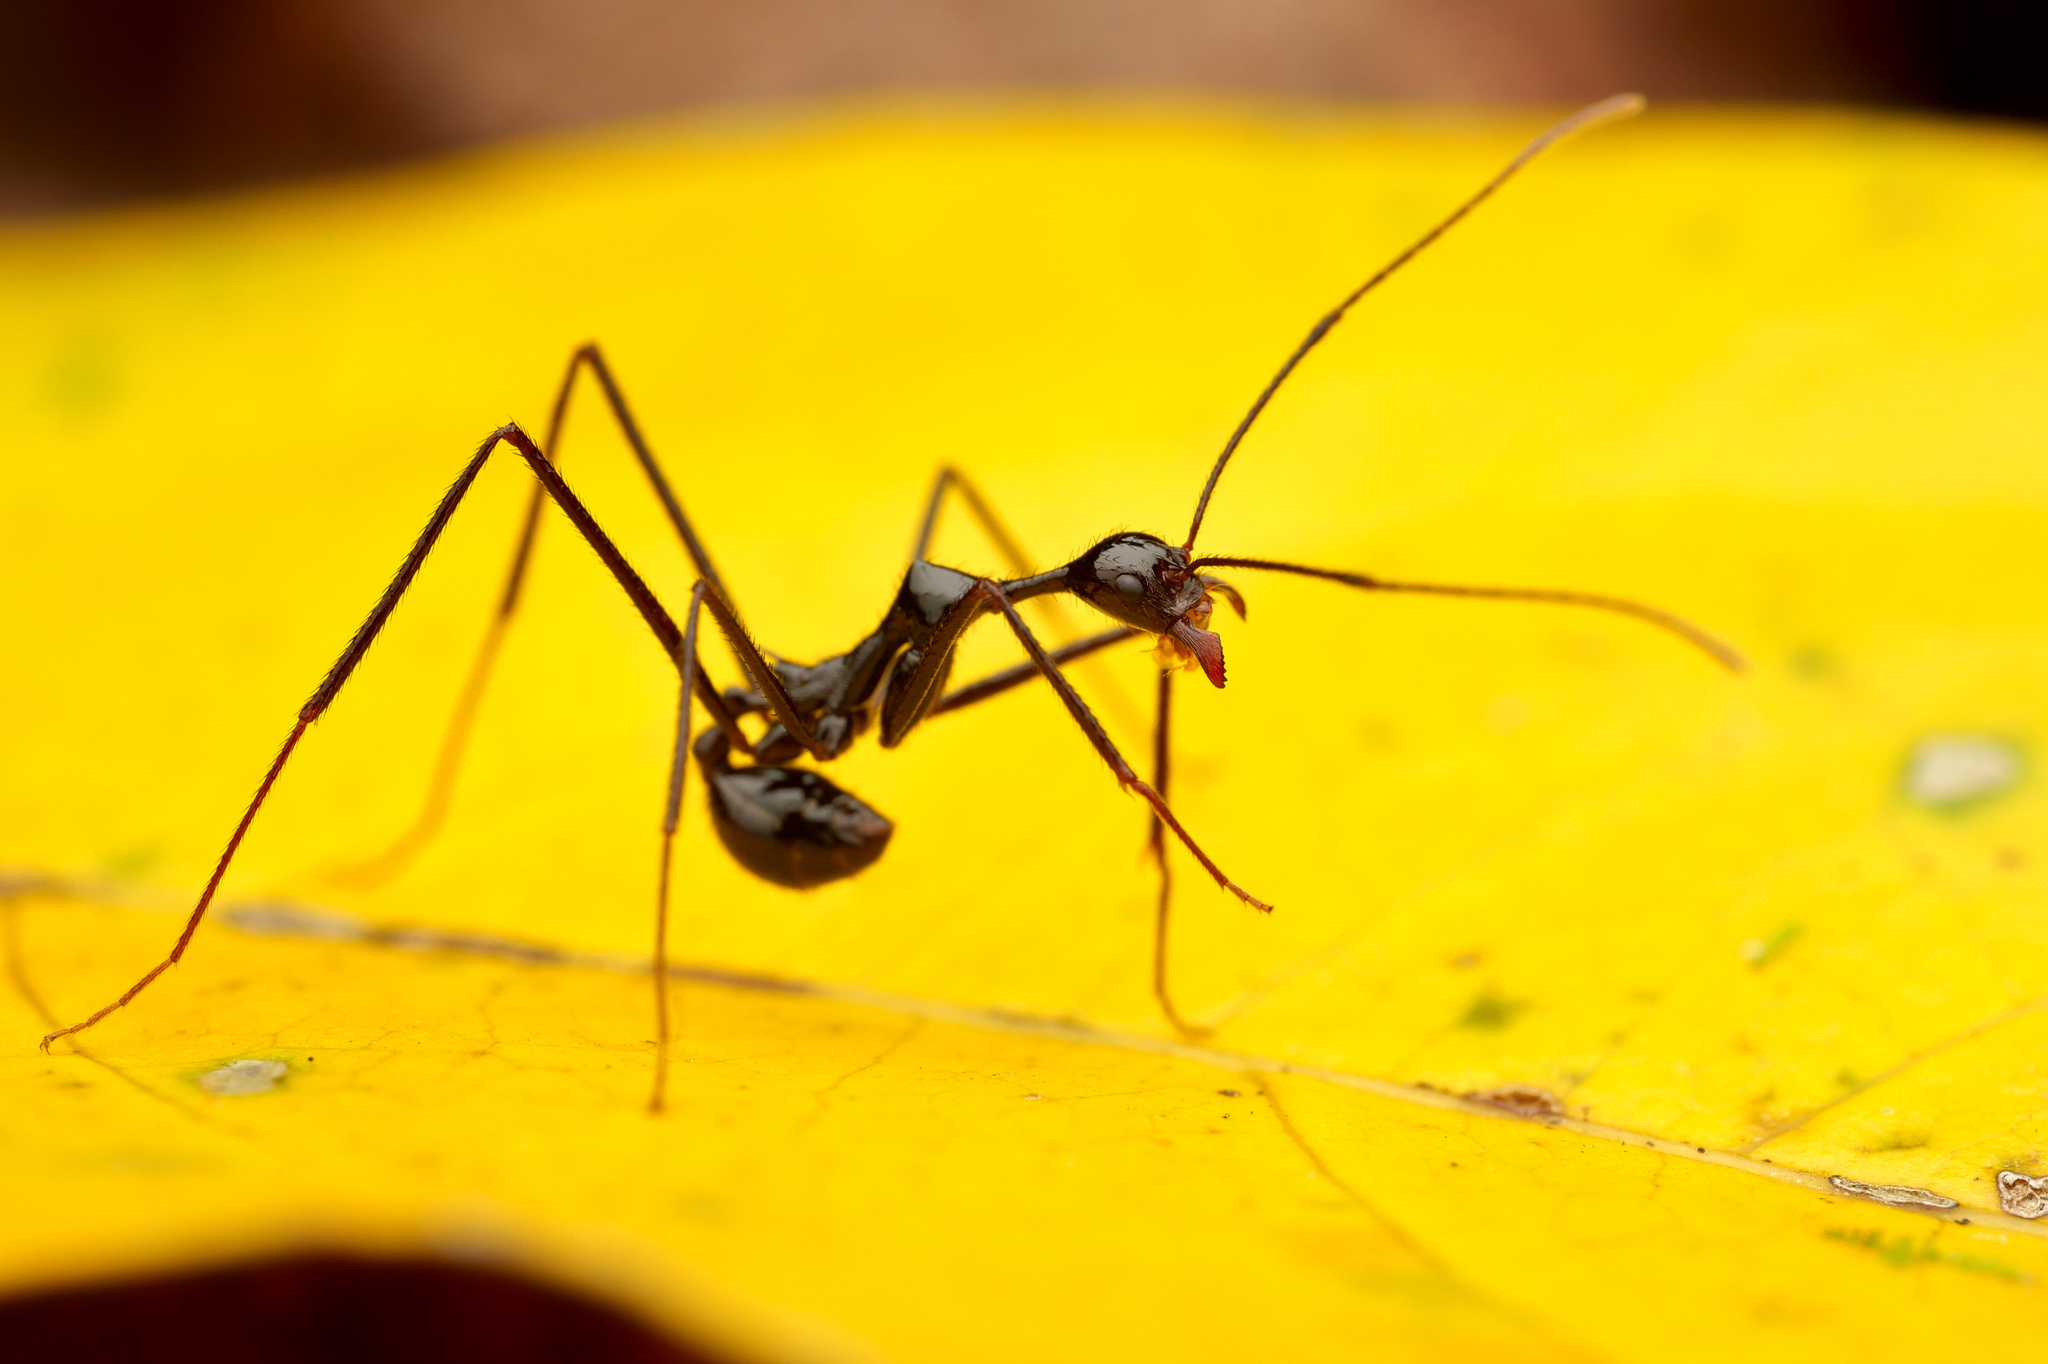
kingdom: Animalia
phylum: Arthropoda
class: Insecta
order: Hymenoptera
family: Formicidae
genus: Aphaenogaster
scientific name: Aphaenogaster dromedaria
